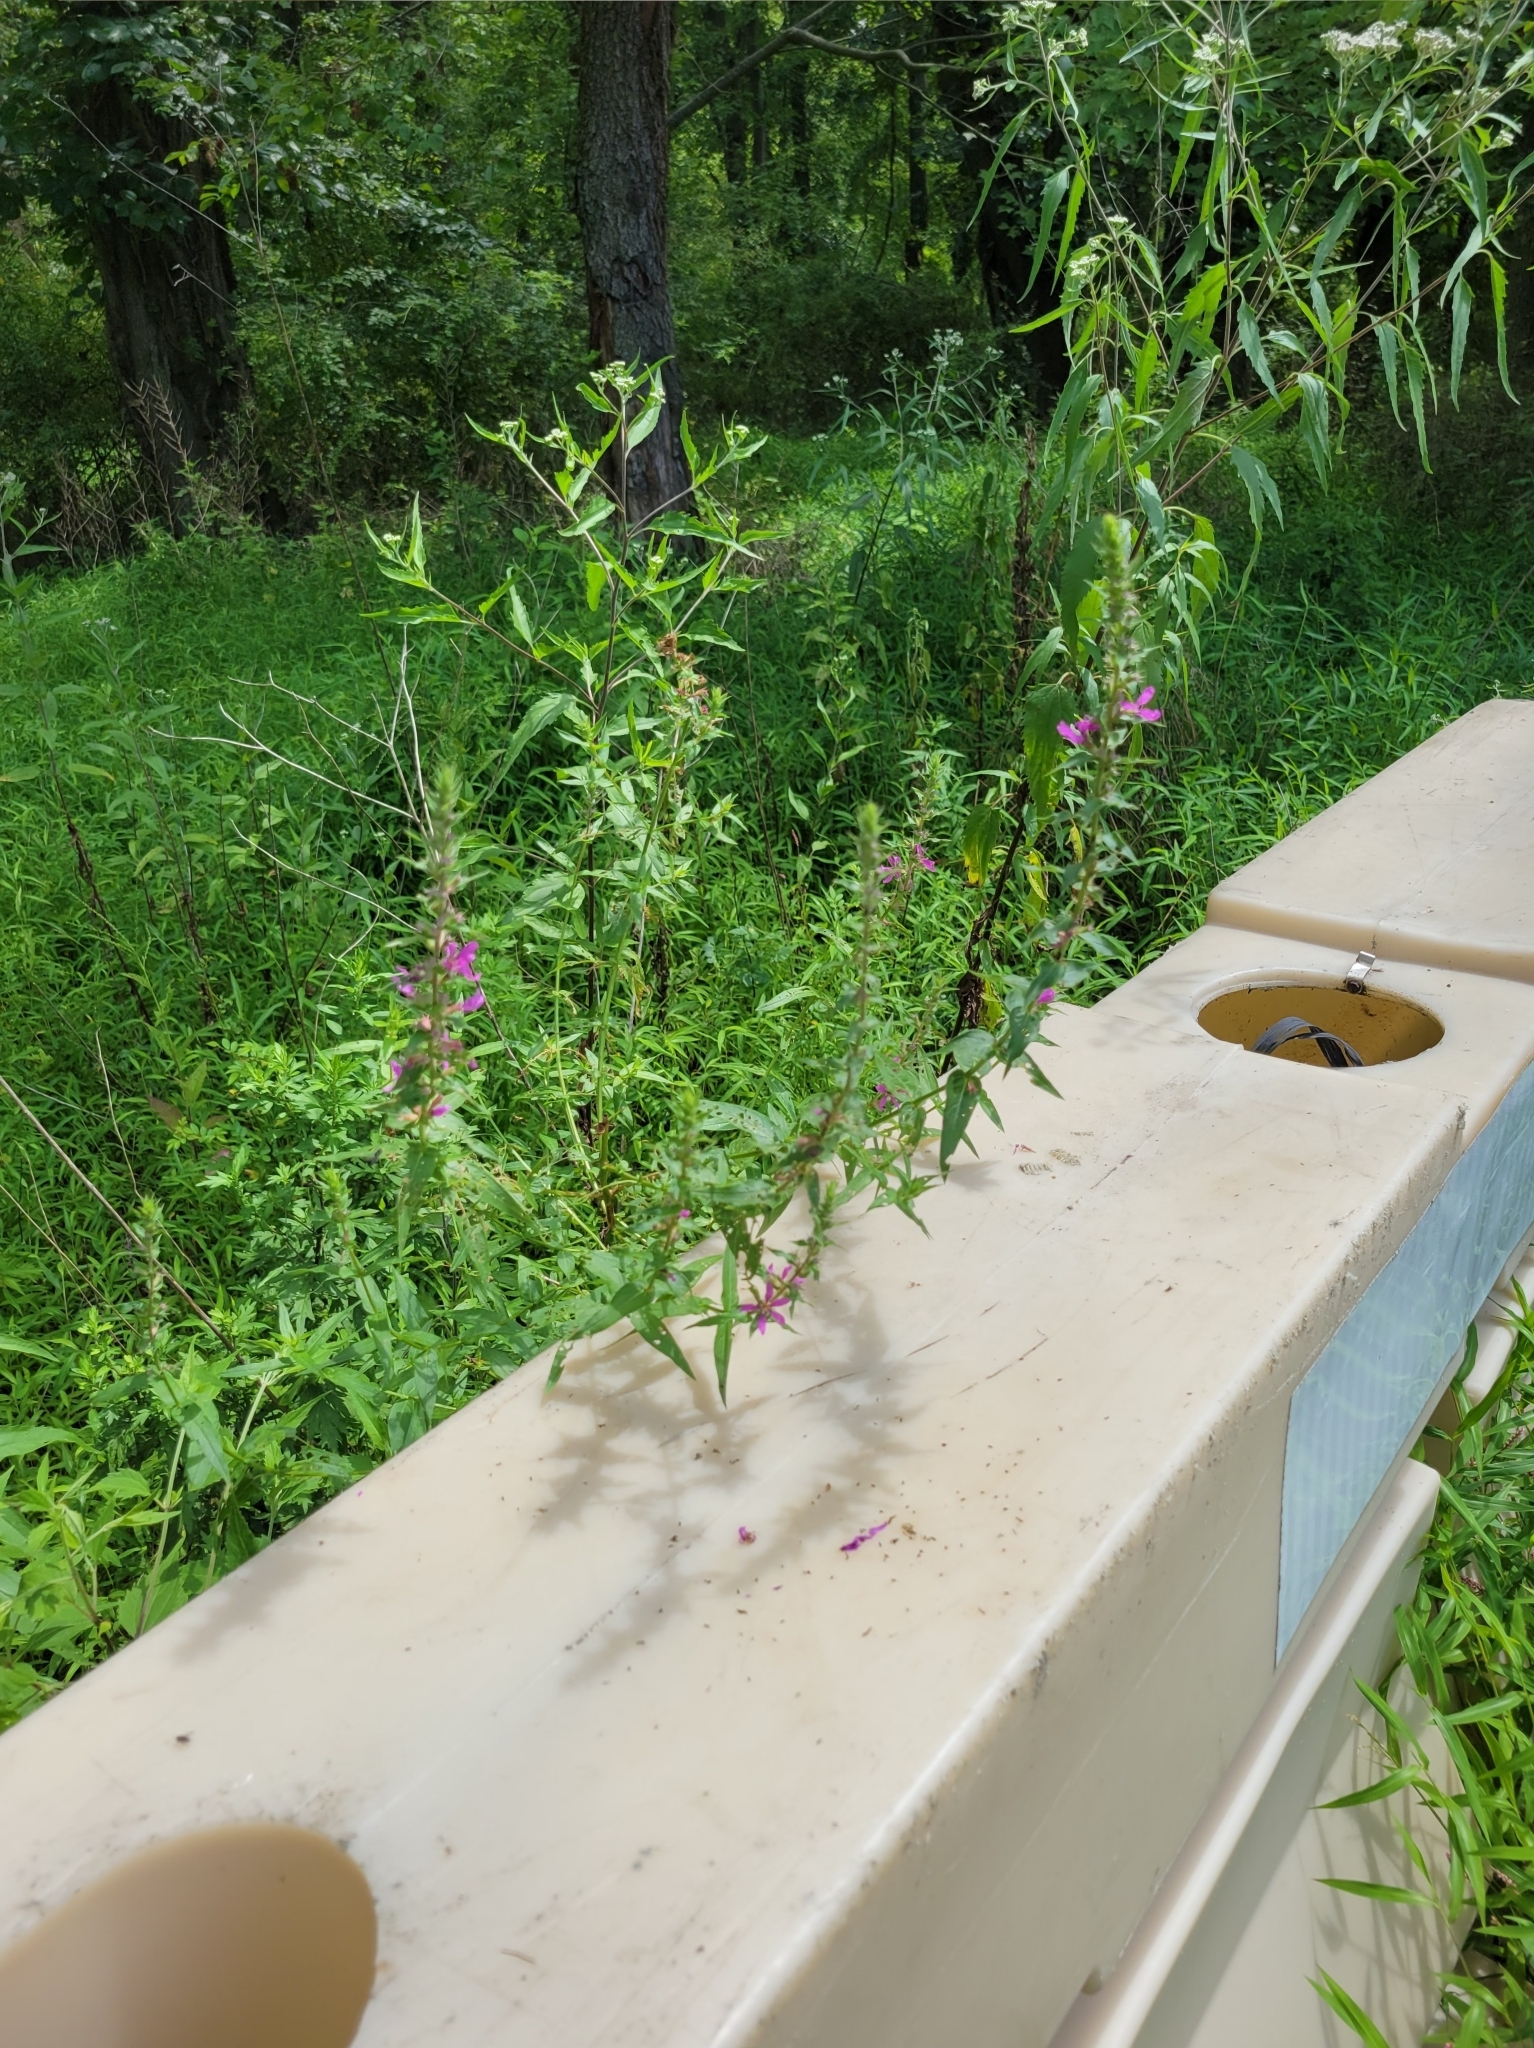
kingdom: Plantae
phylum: Tracheophyta
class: Magnoliopsida
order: Myrtales
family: Lythraceae
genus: Lythrum
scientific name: Lythrum salicaria
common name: Purple loosestrife
